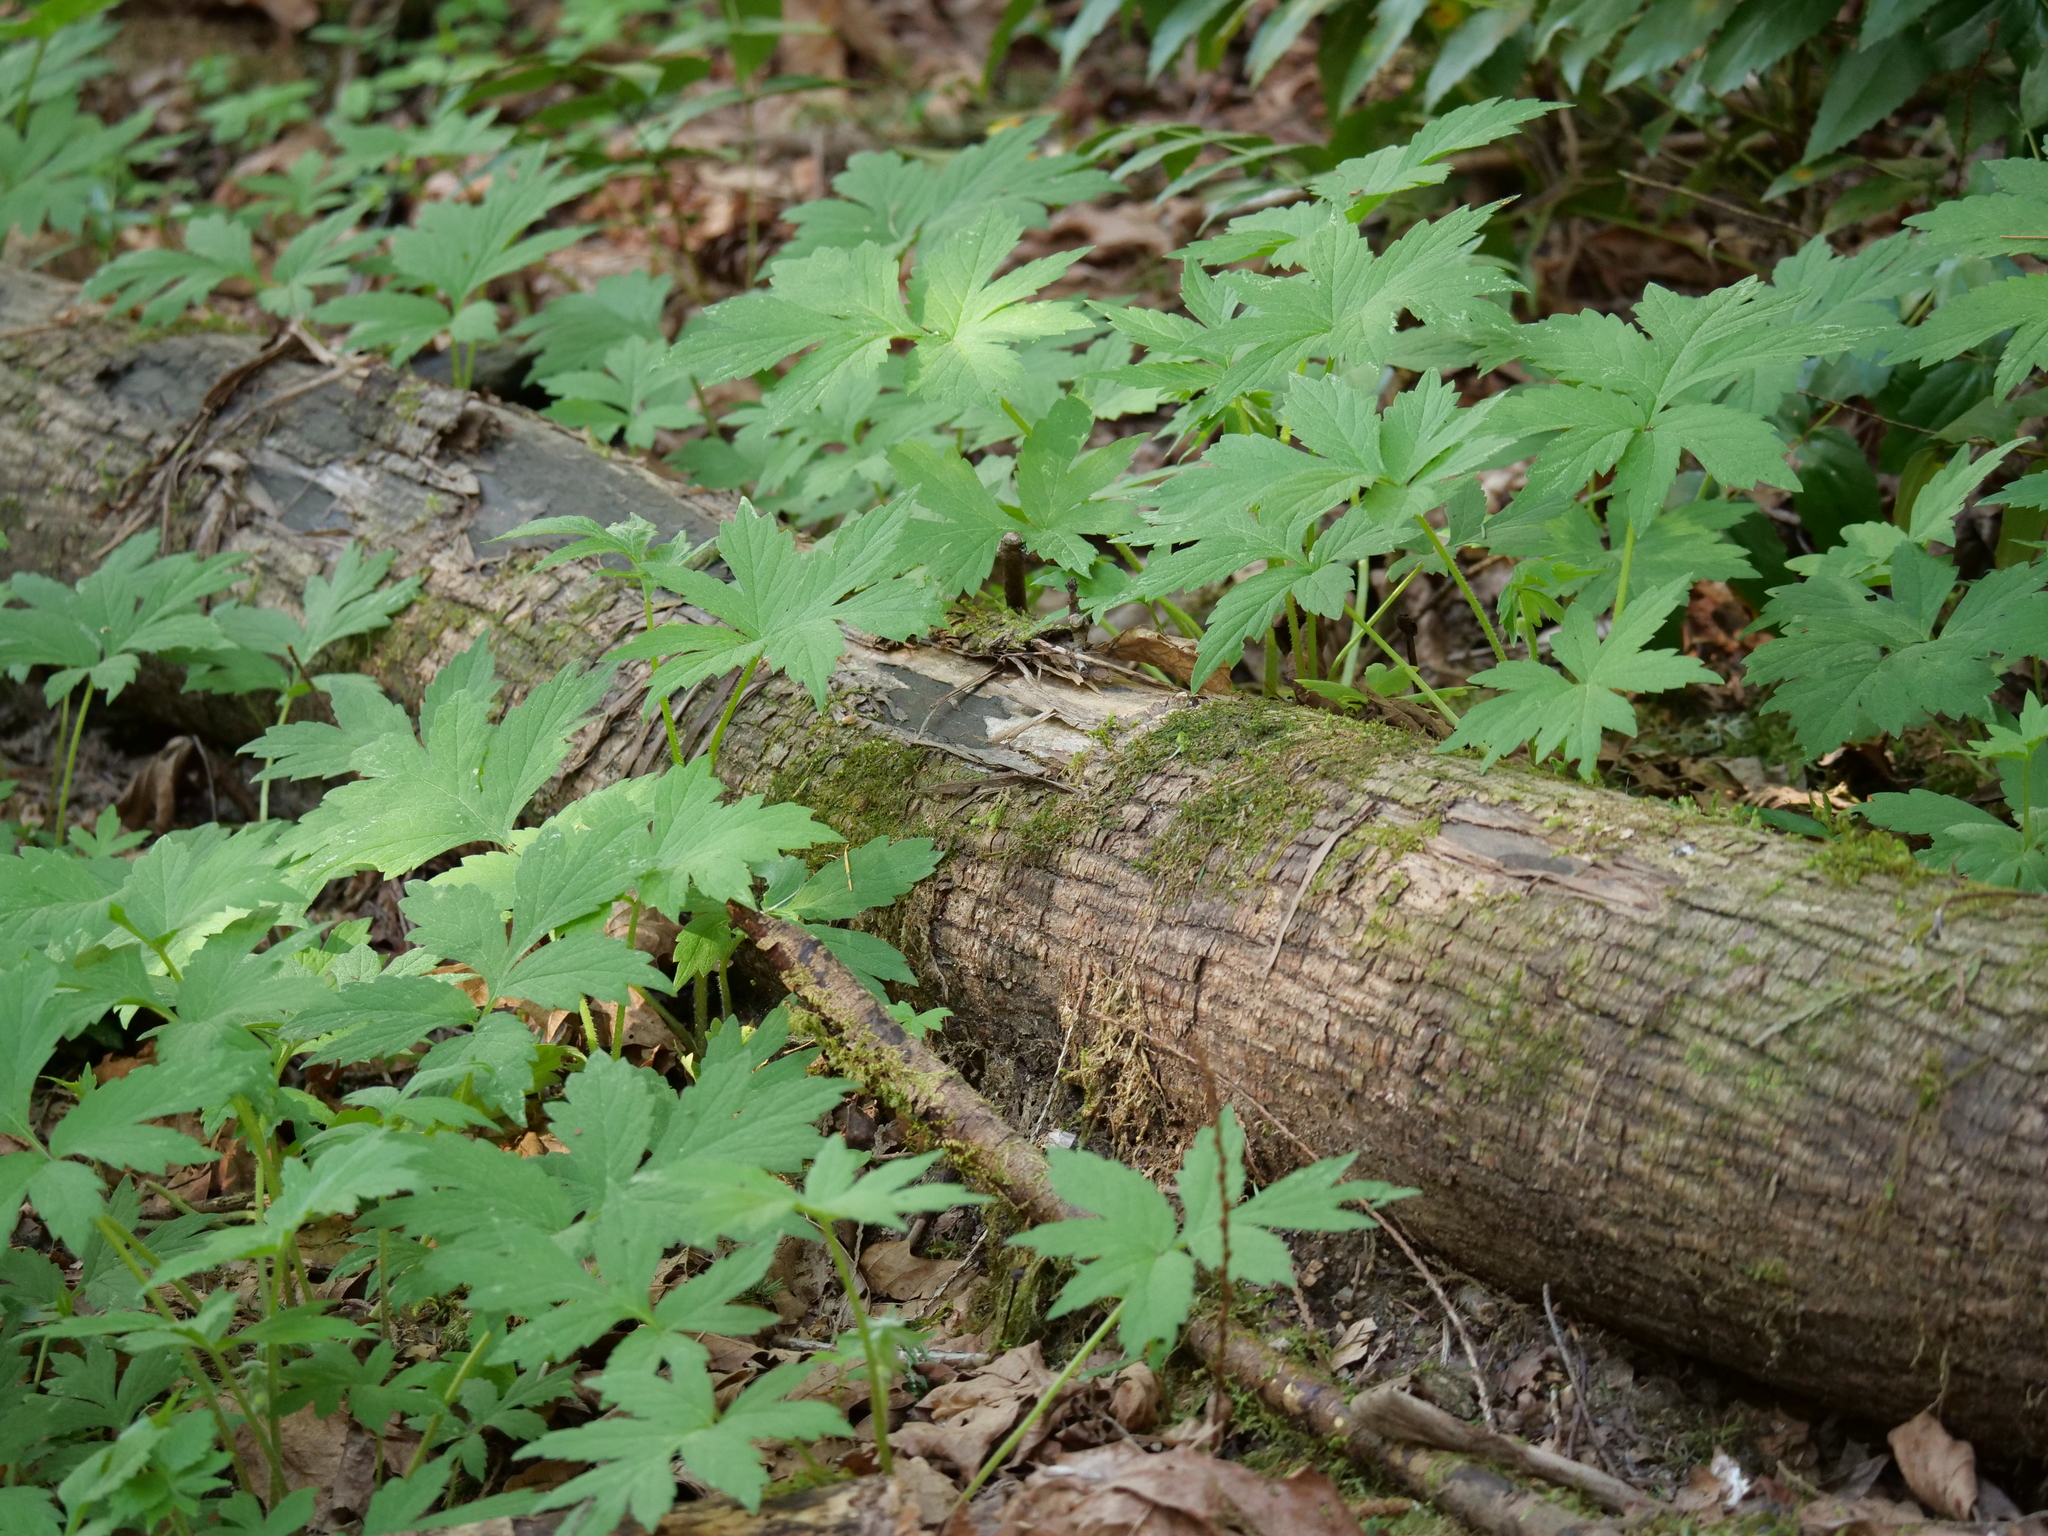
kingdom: Plantae
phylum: Tracheophyta
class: Magnoliopsida
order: Boraginales
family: Hydrophyllaceae
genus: Hydrophyllum
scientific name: Hydrophyllum tenuipes
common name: Pacific waterleaf
